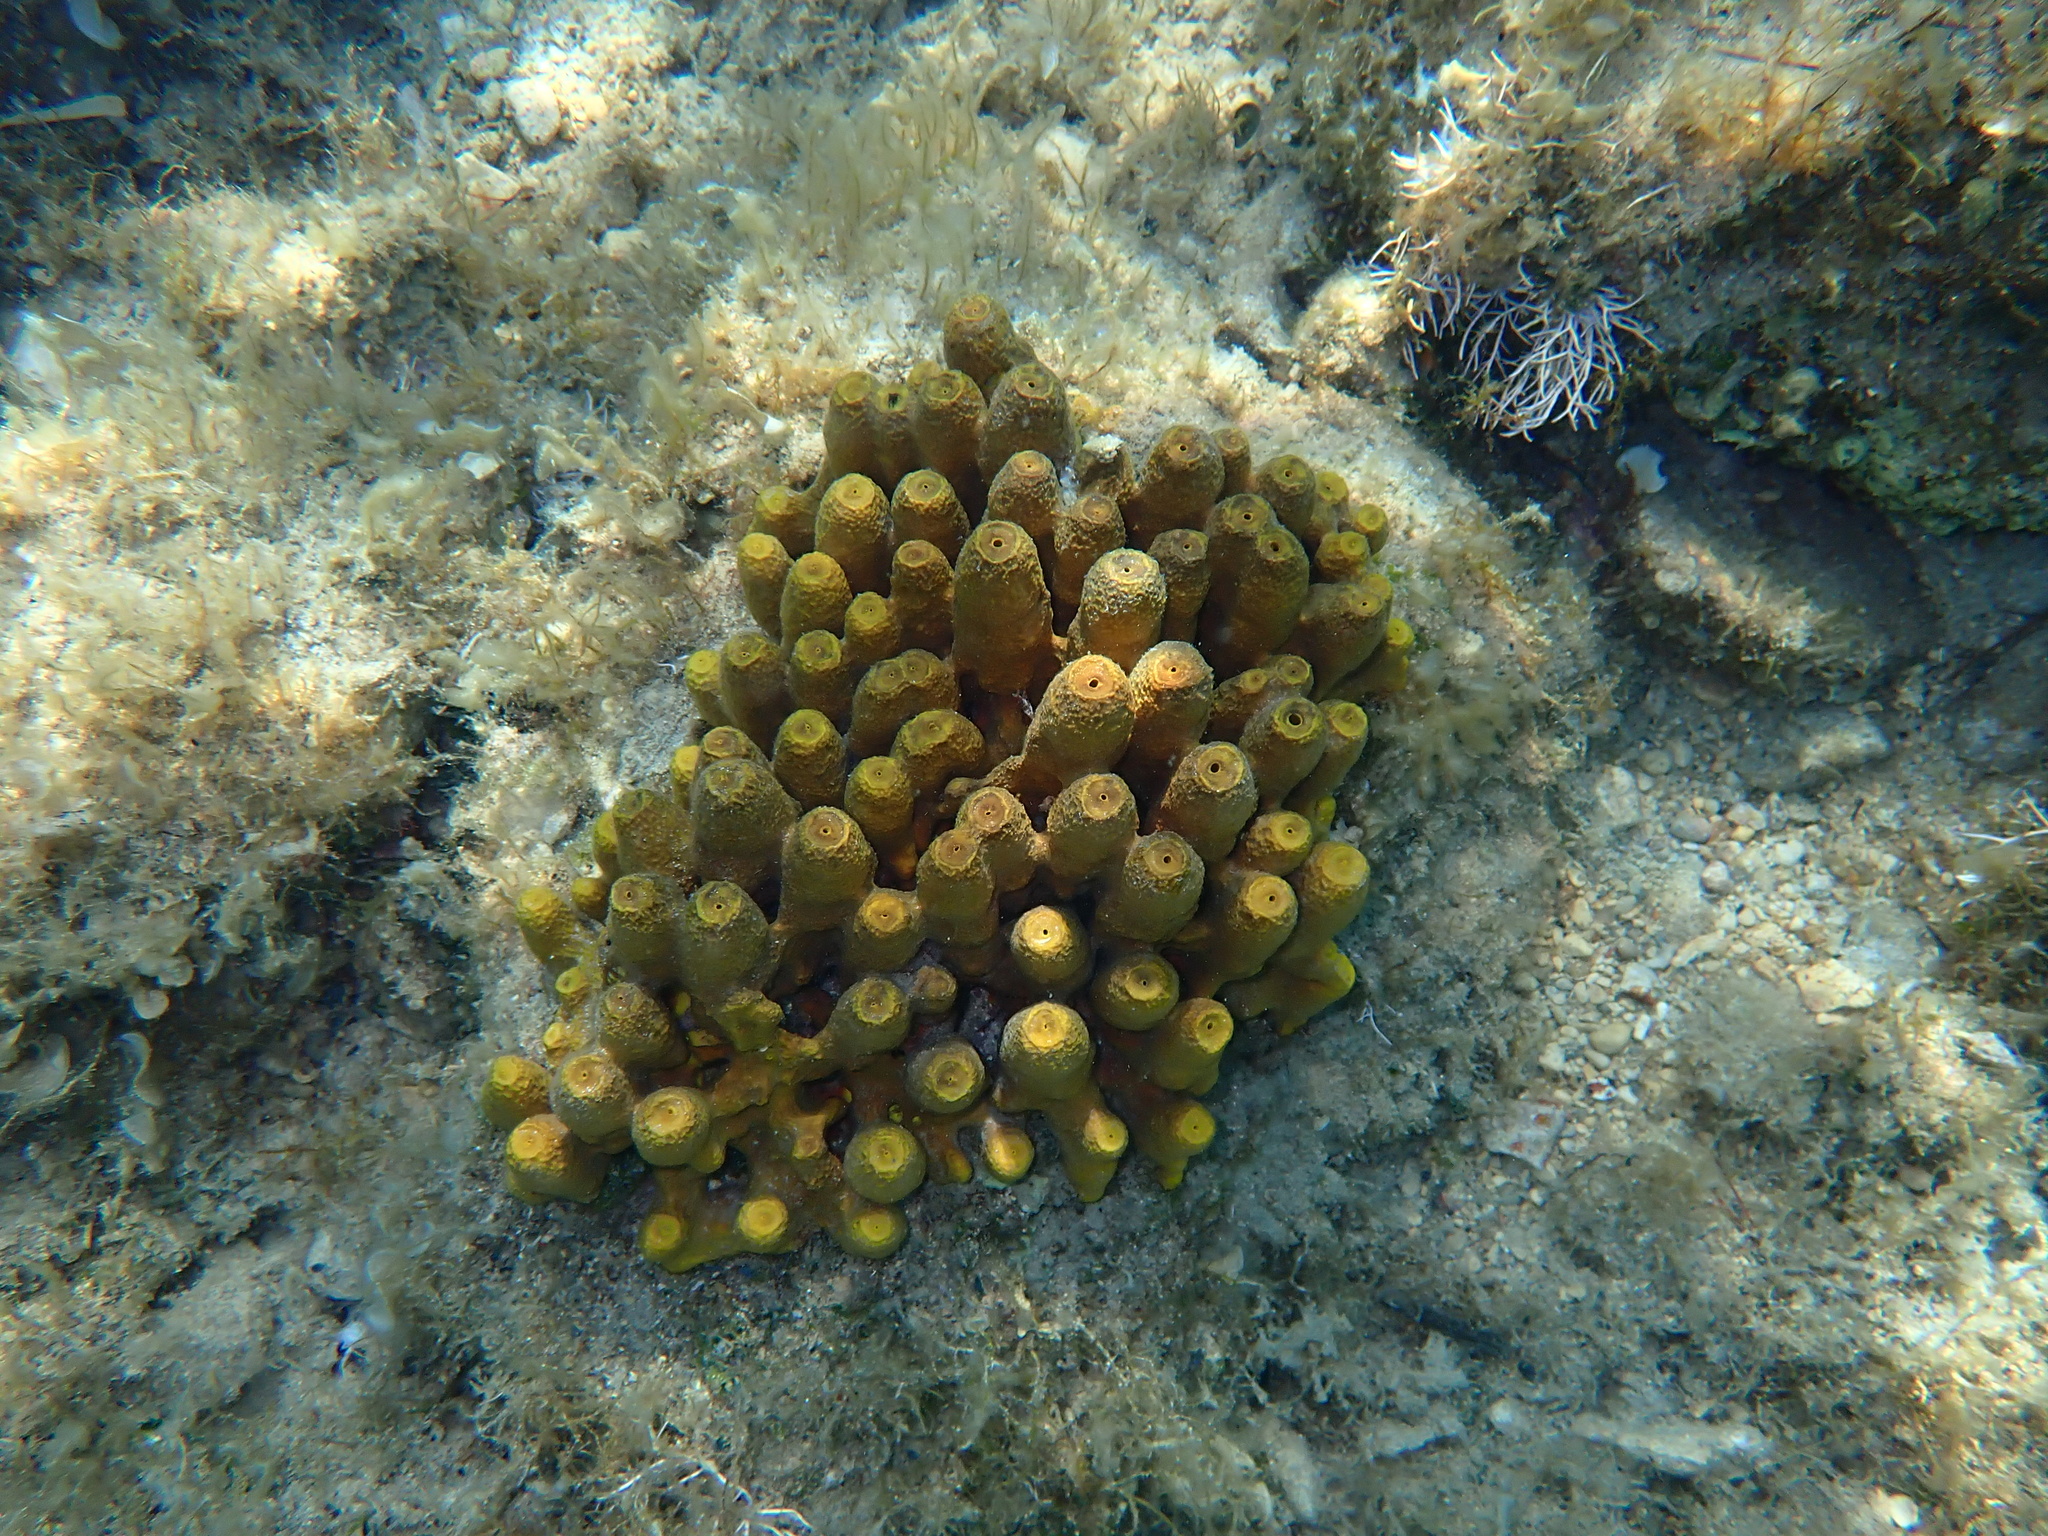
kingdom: Animalia
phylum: Porifera
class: Demospongiae
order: Verongiida
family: Aplysinidae
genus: Aplysina
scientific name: Aplysina aerophoba
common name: Aureate sponge
